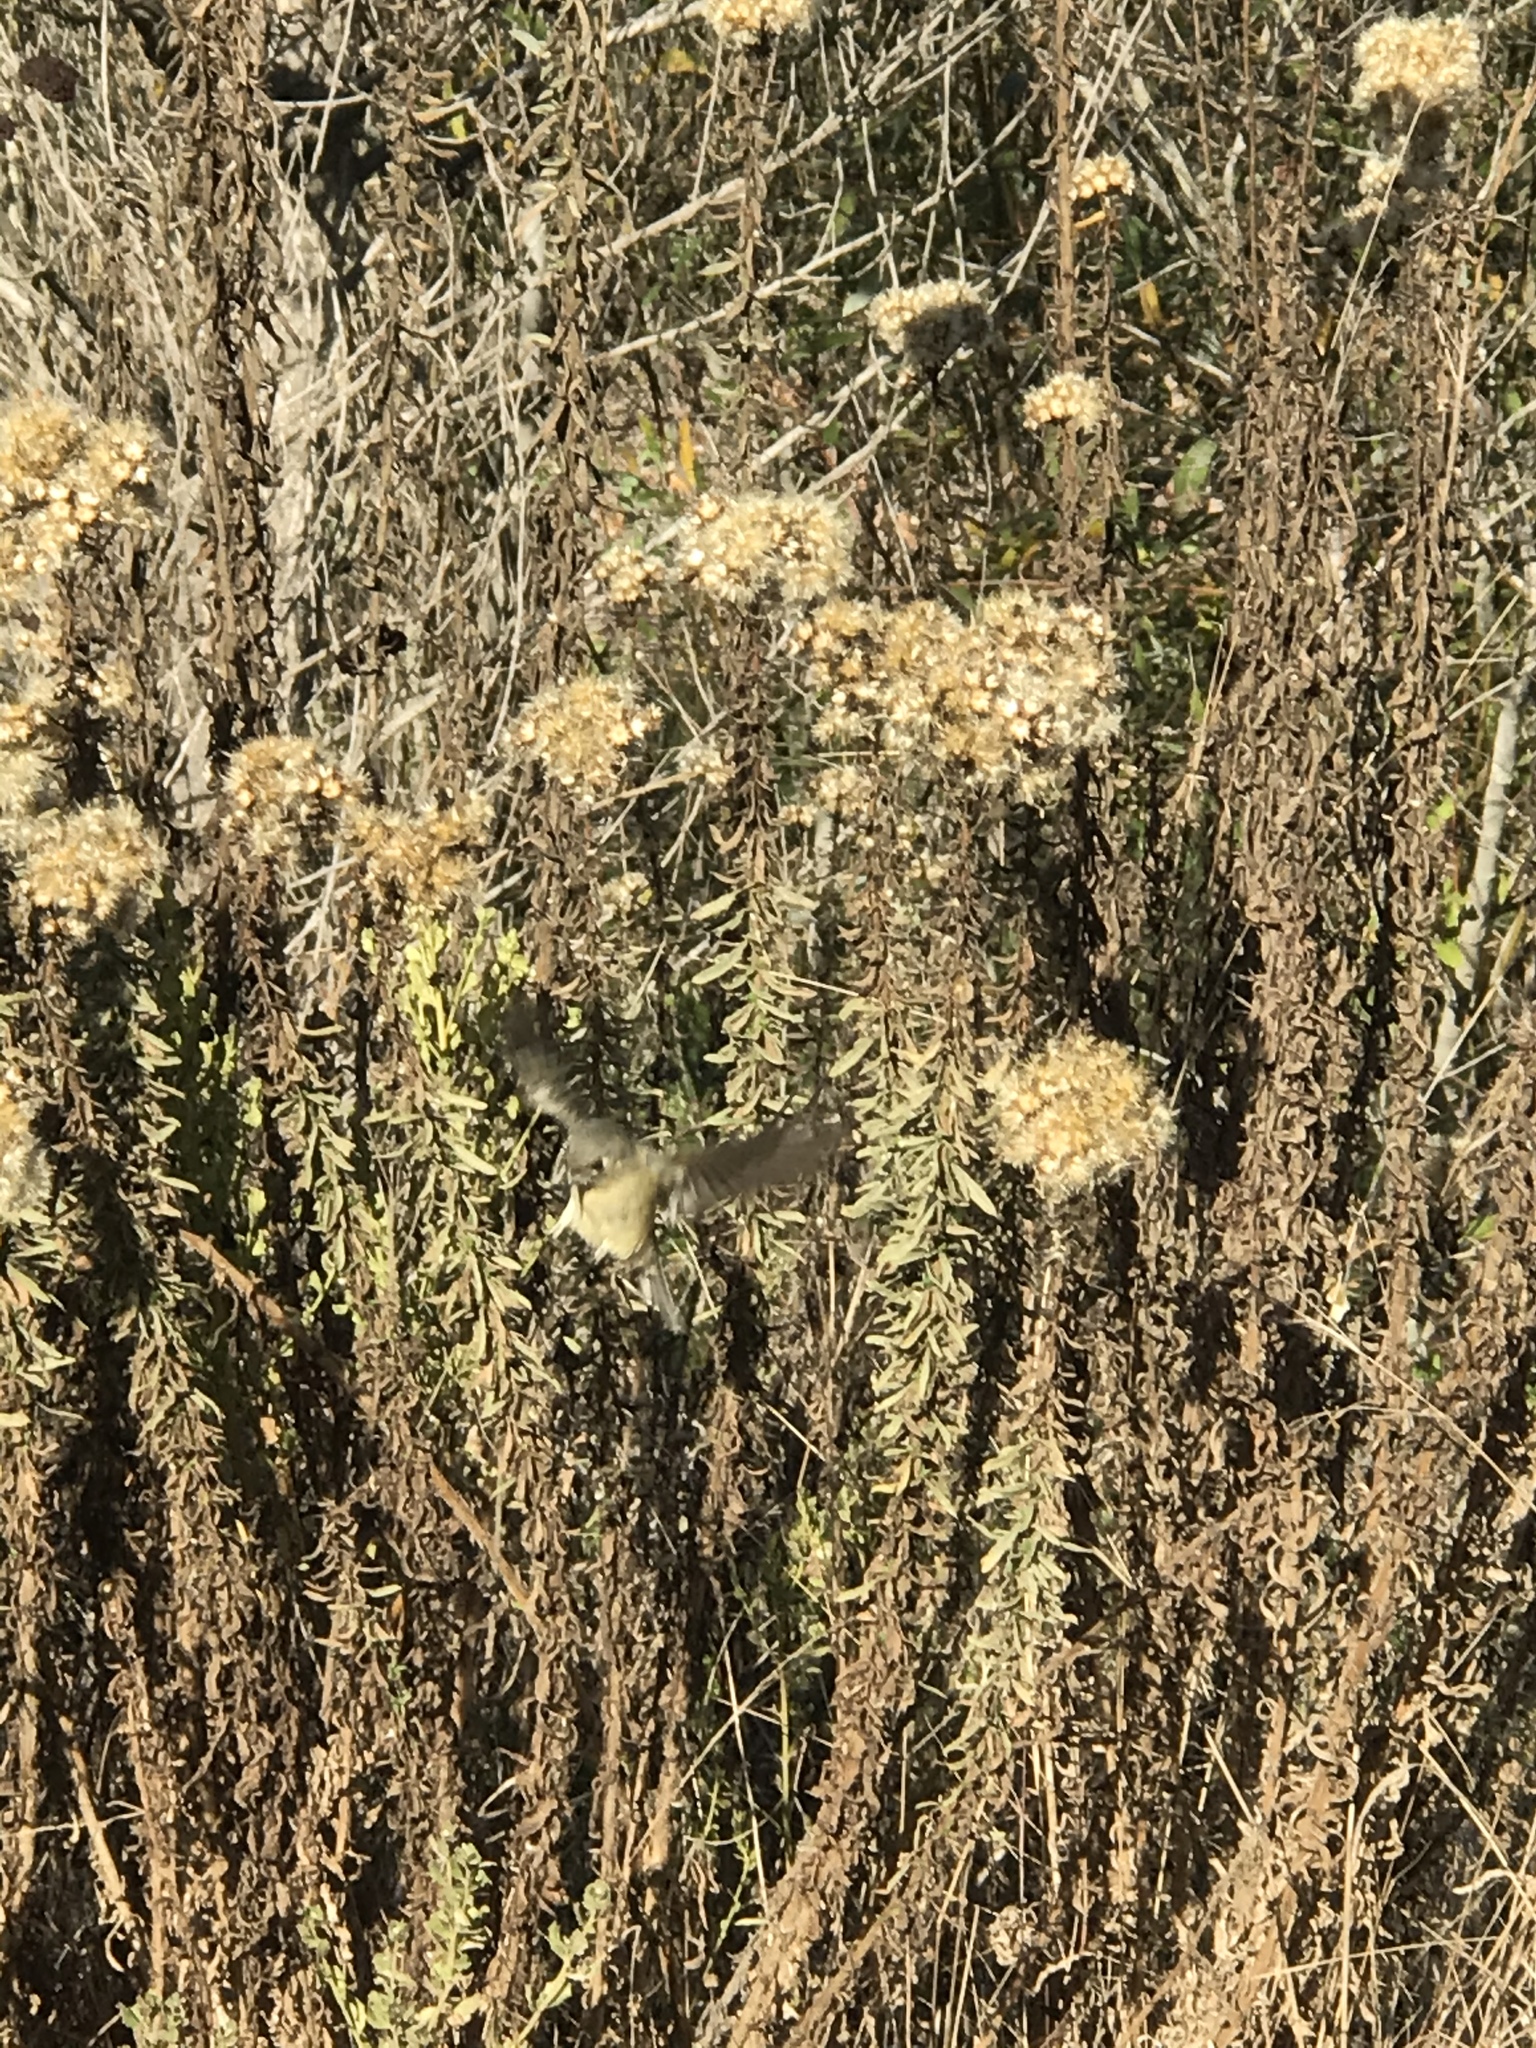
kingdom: Animalia
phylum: Chordata
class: Aves
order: Passeriformes
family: Regulidae
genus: Regulus
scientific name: Regulus calendula
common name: Ruby-crowned kinglet
